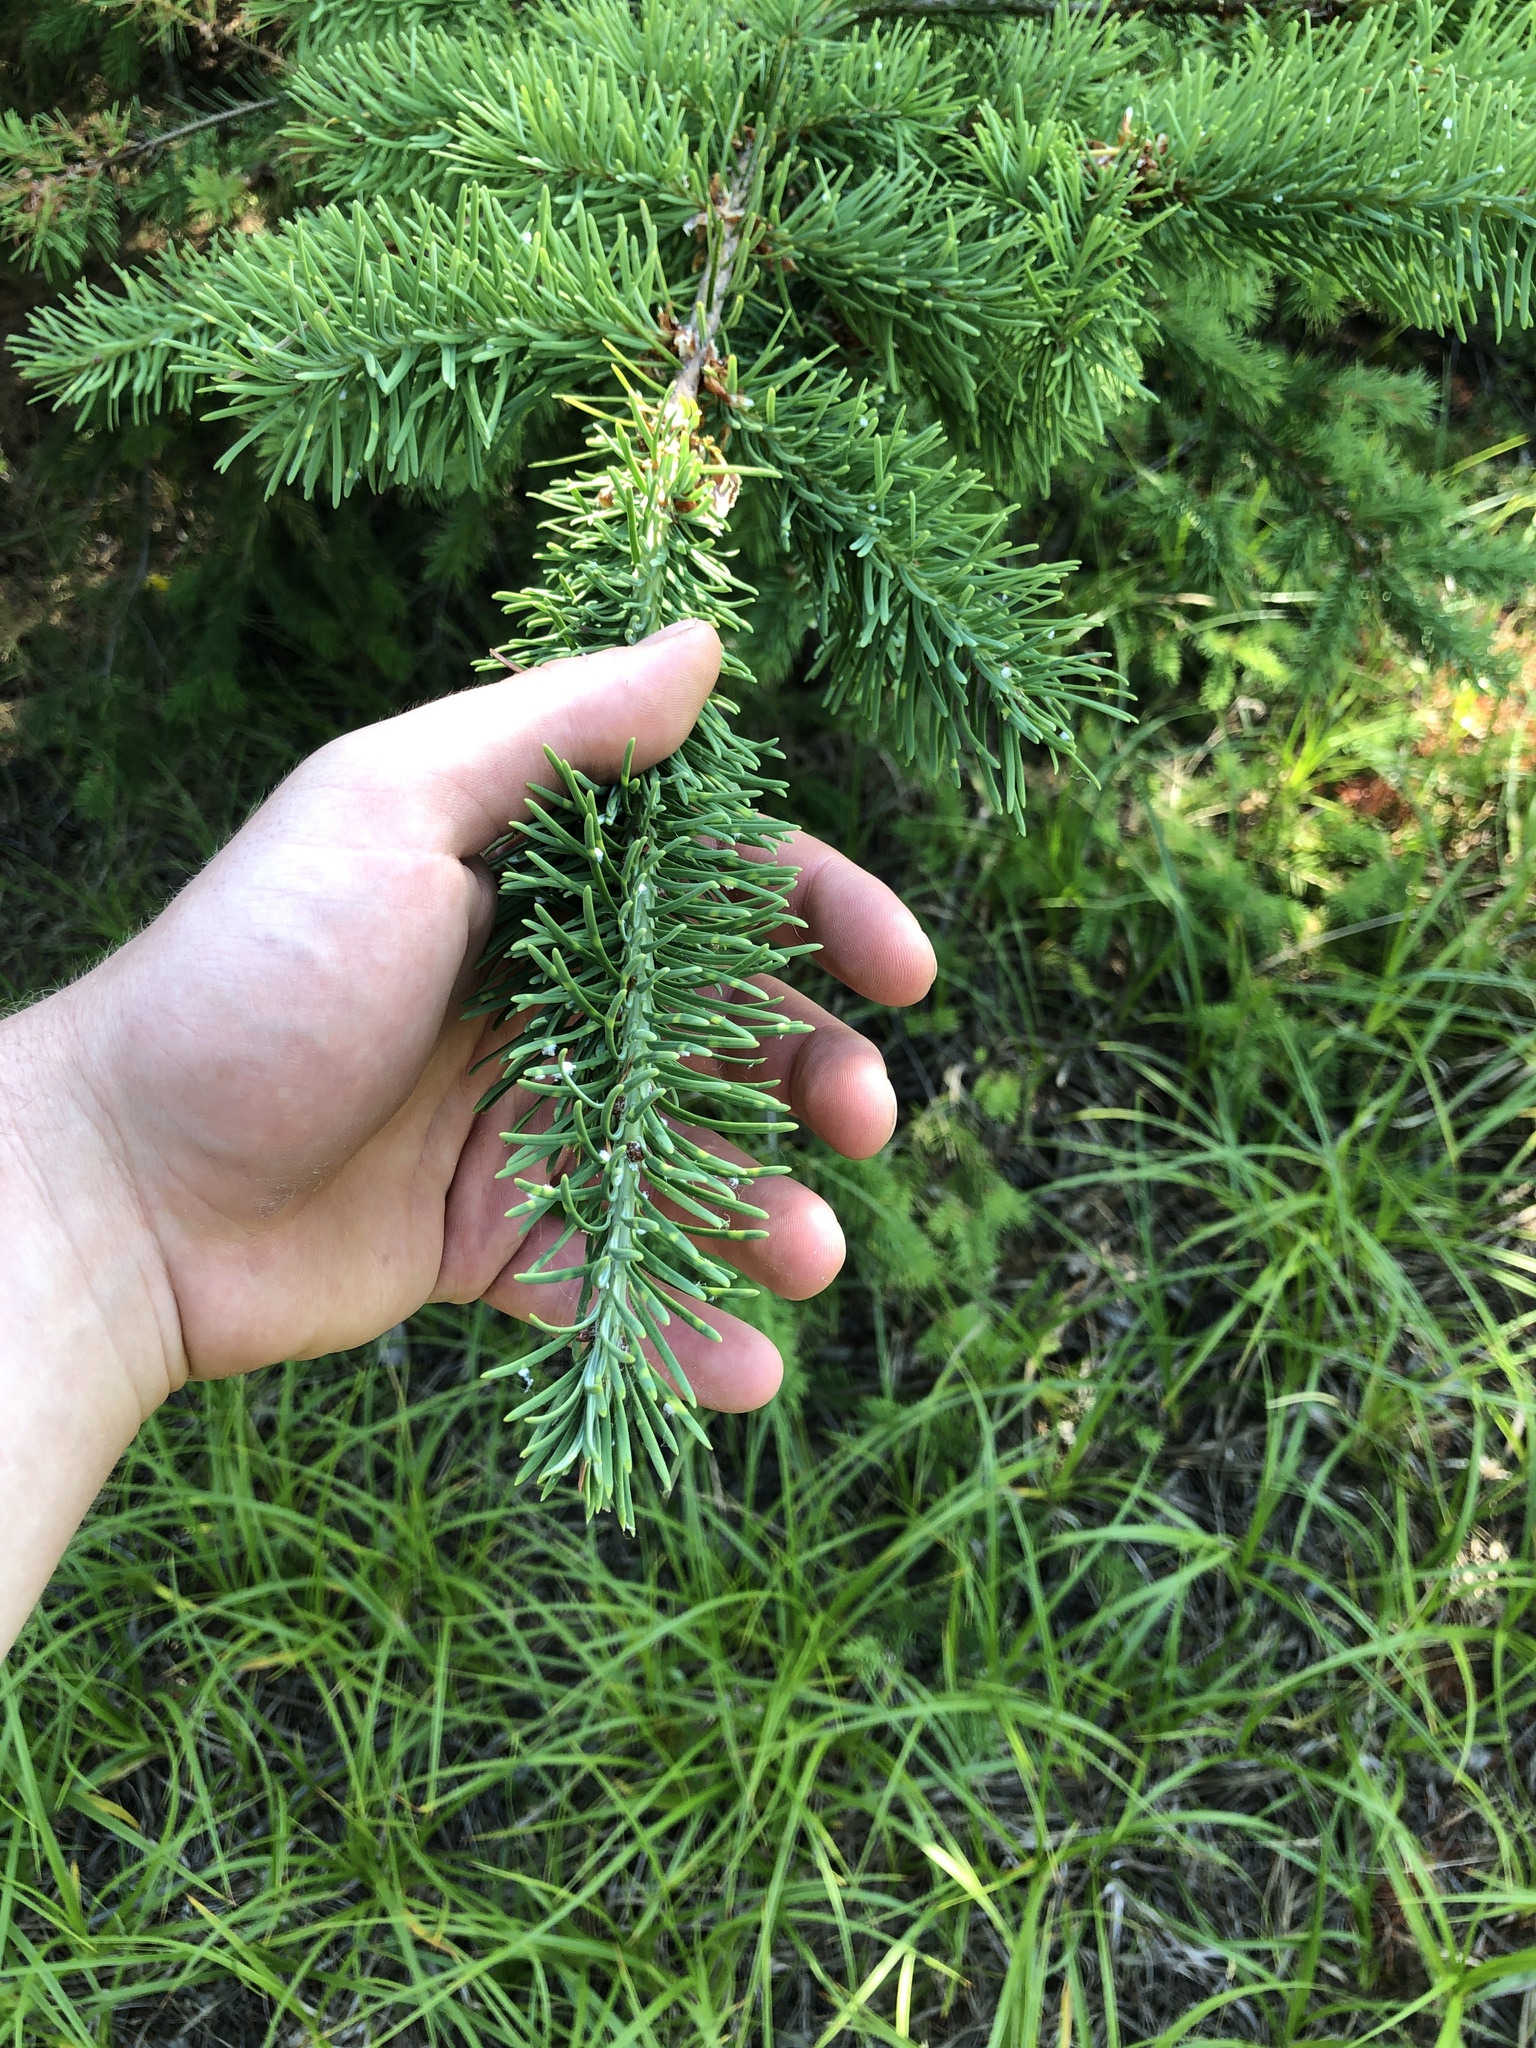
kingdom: Plantae
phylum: Tracheophyta
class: Pinopsida
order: Pinales
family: Pinaceae
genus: Pseudotsuga
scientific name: Pseudotsuga menziesii
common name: Douglas fir
